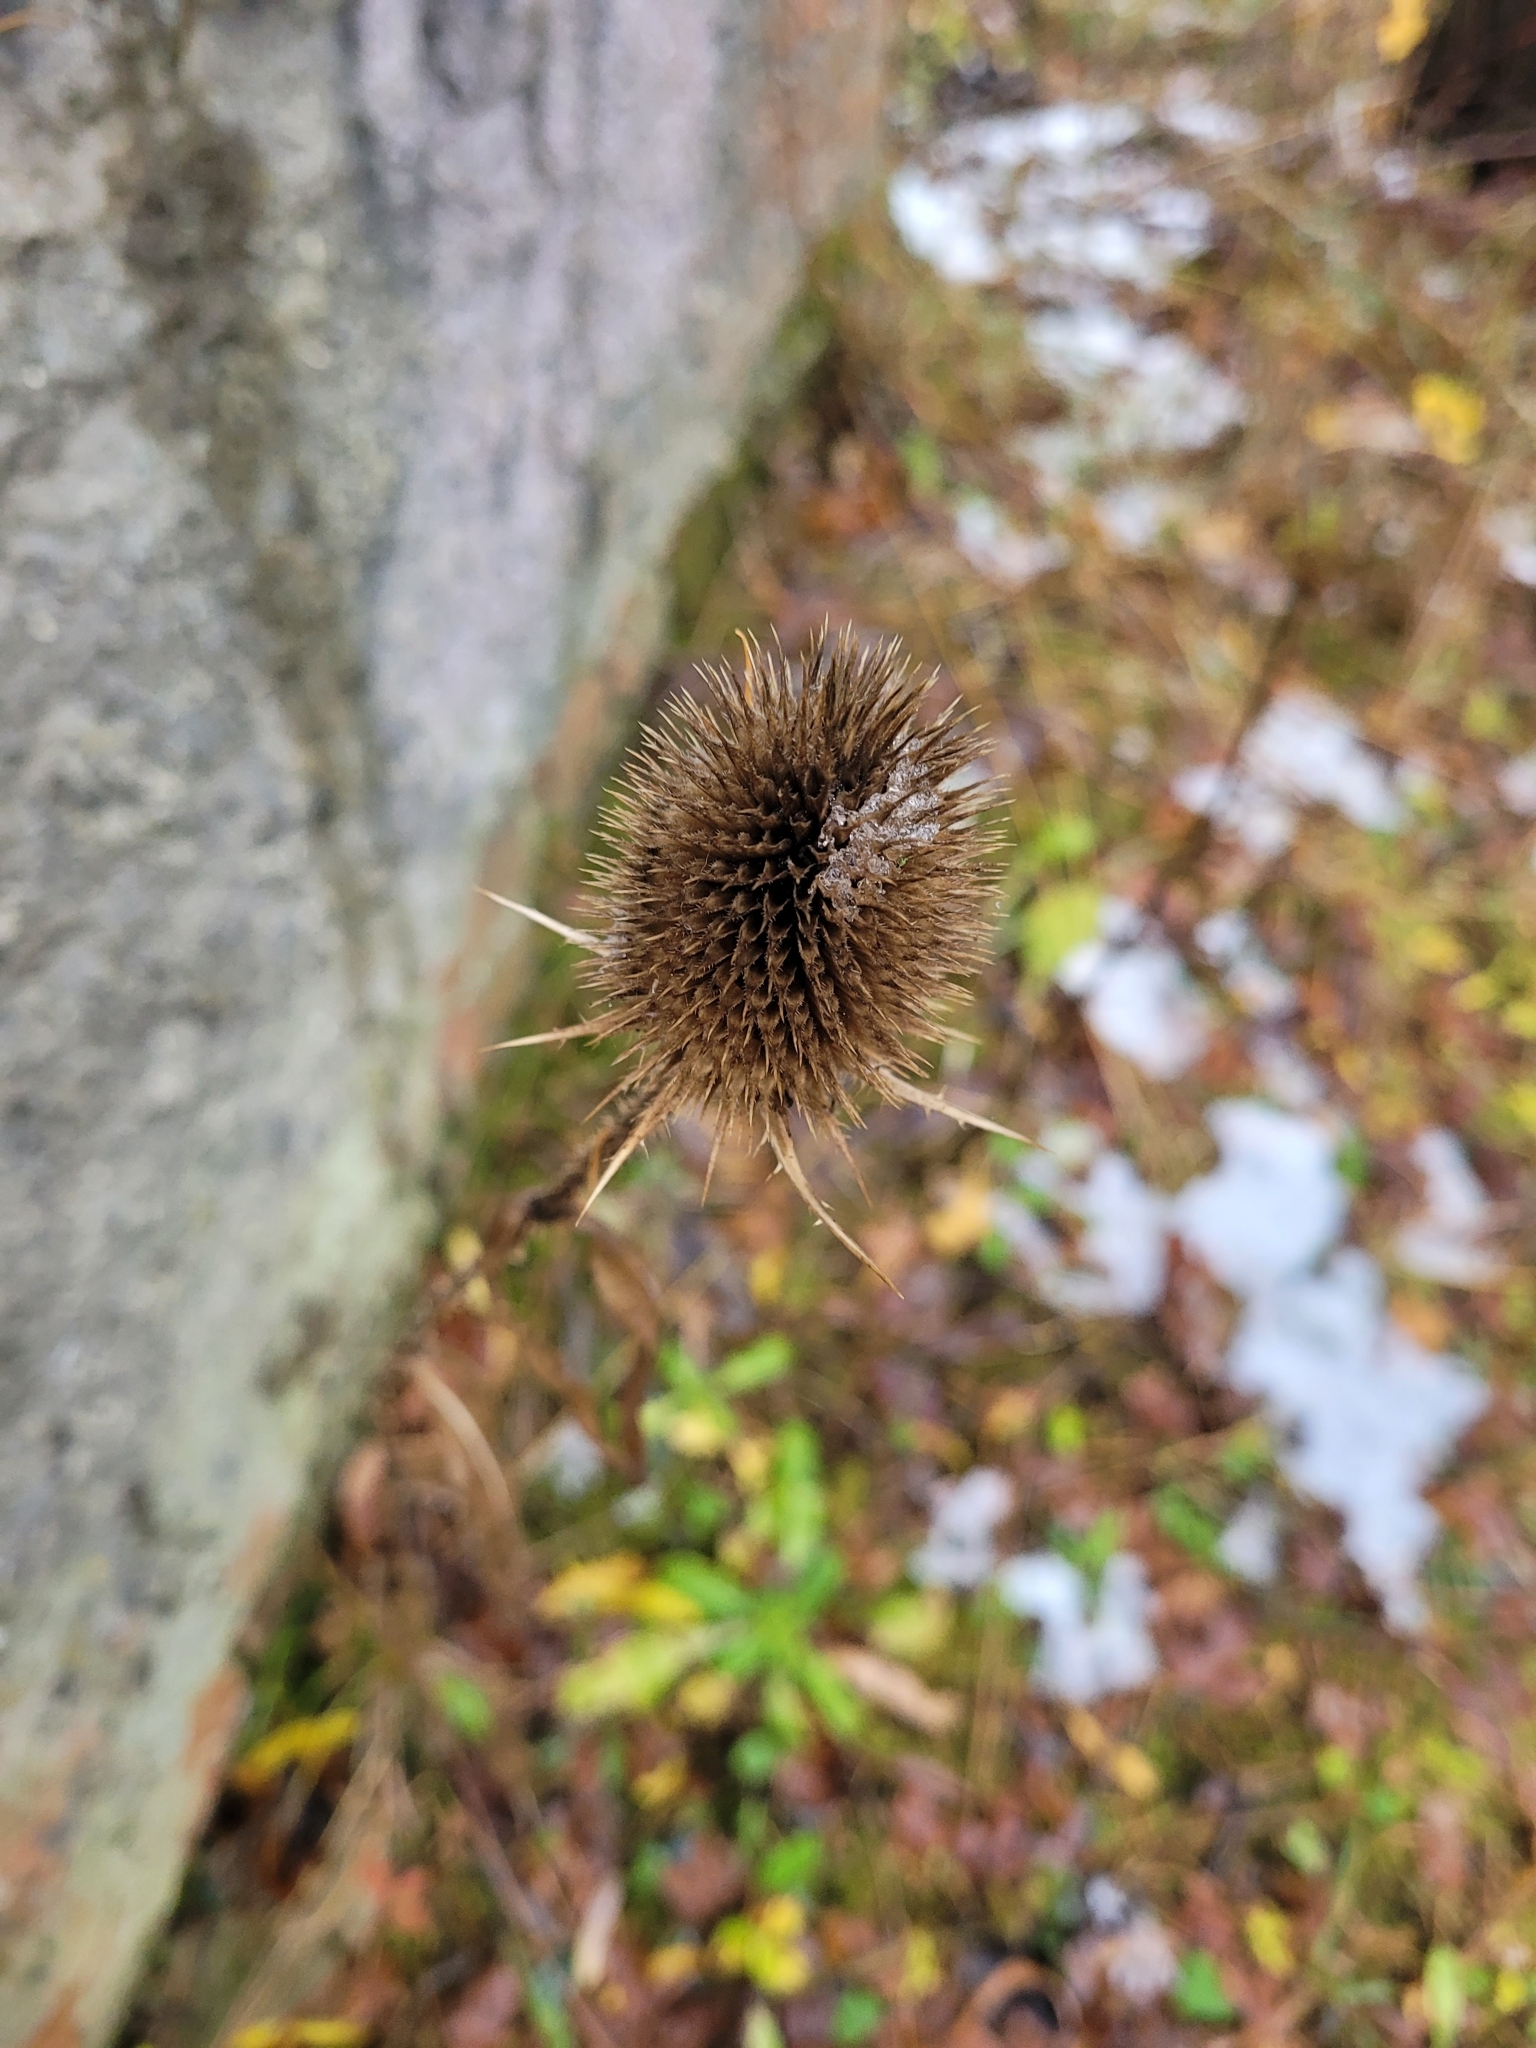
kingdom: Plantae
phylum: Tracheophyta
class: Magnoliopsida
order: Dipsacales
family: Caprifoliaceae
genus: Dipsacus
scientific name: Dipsacus fullonum
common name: Teasel
